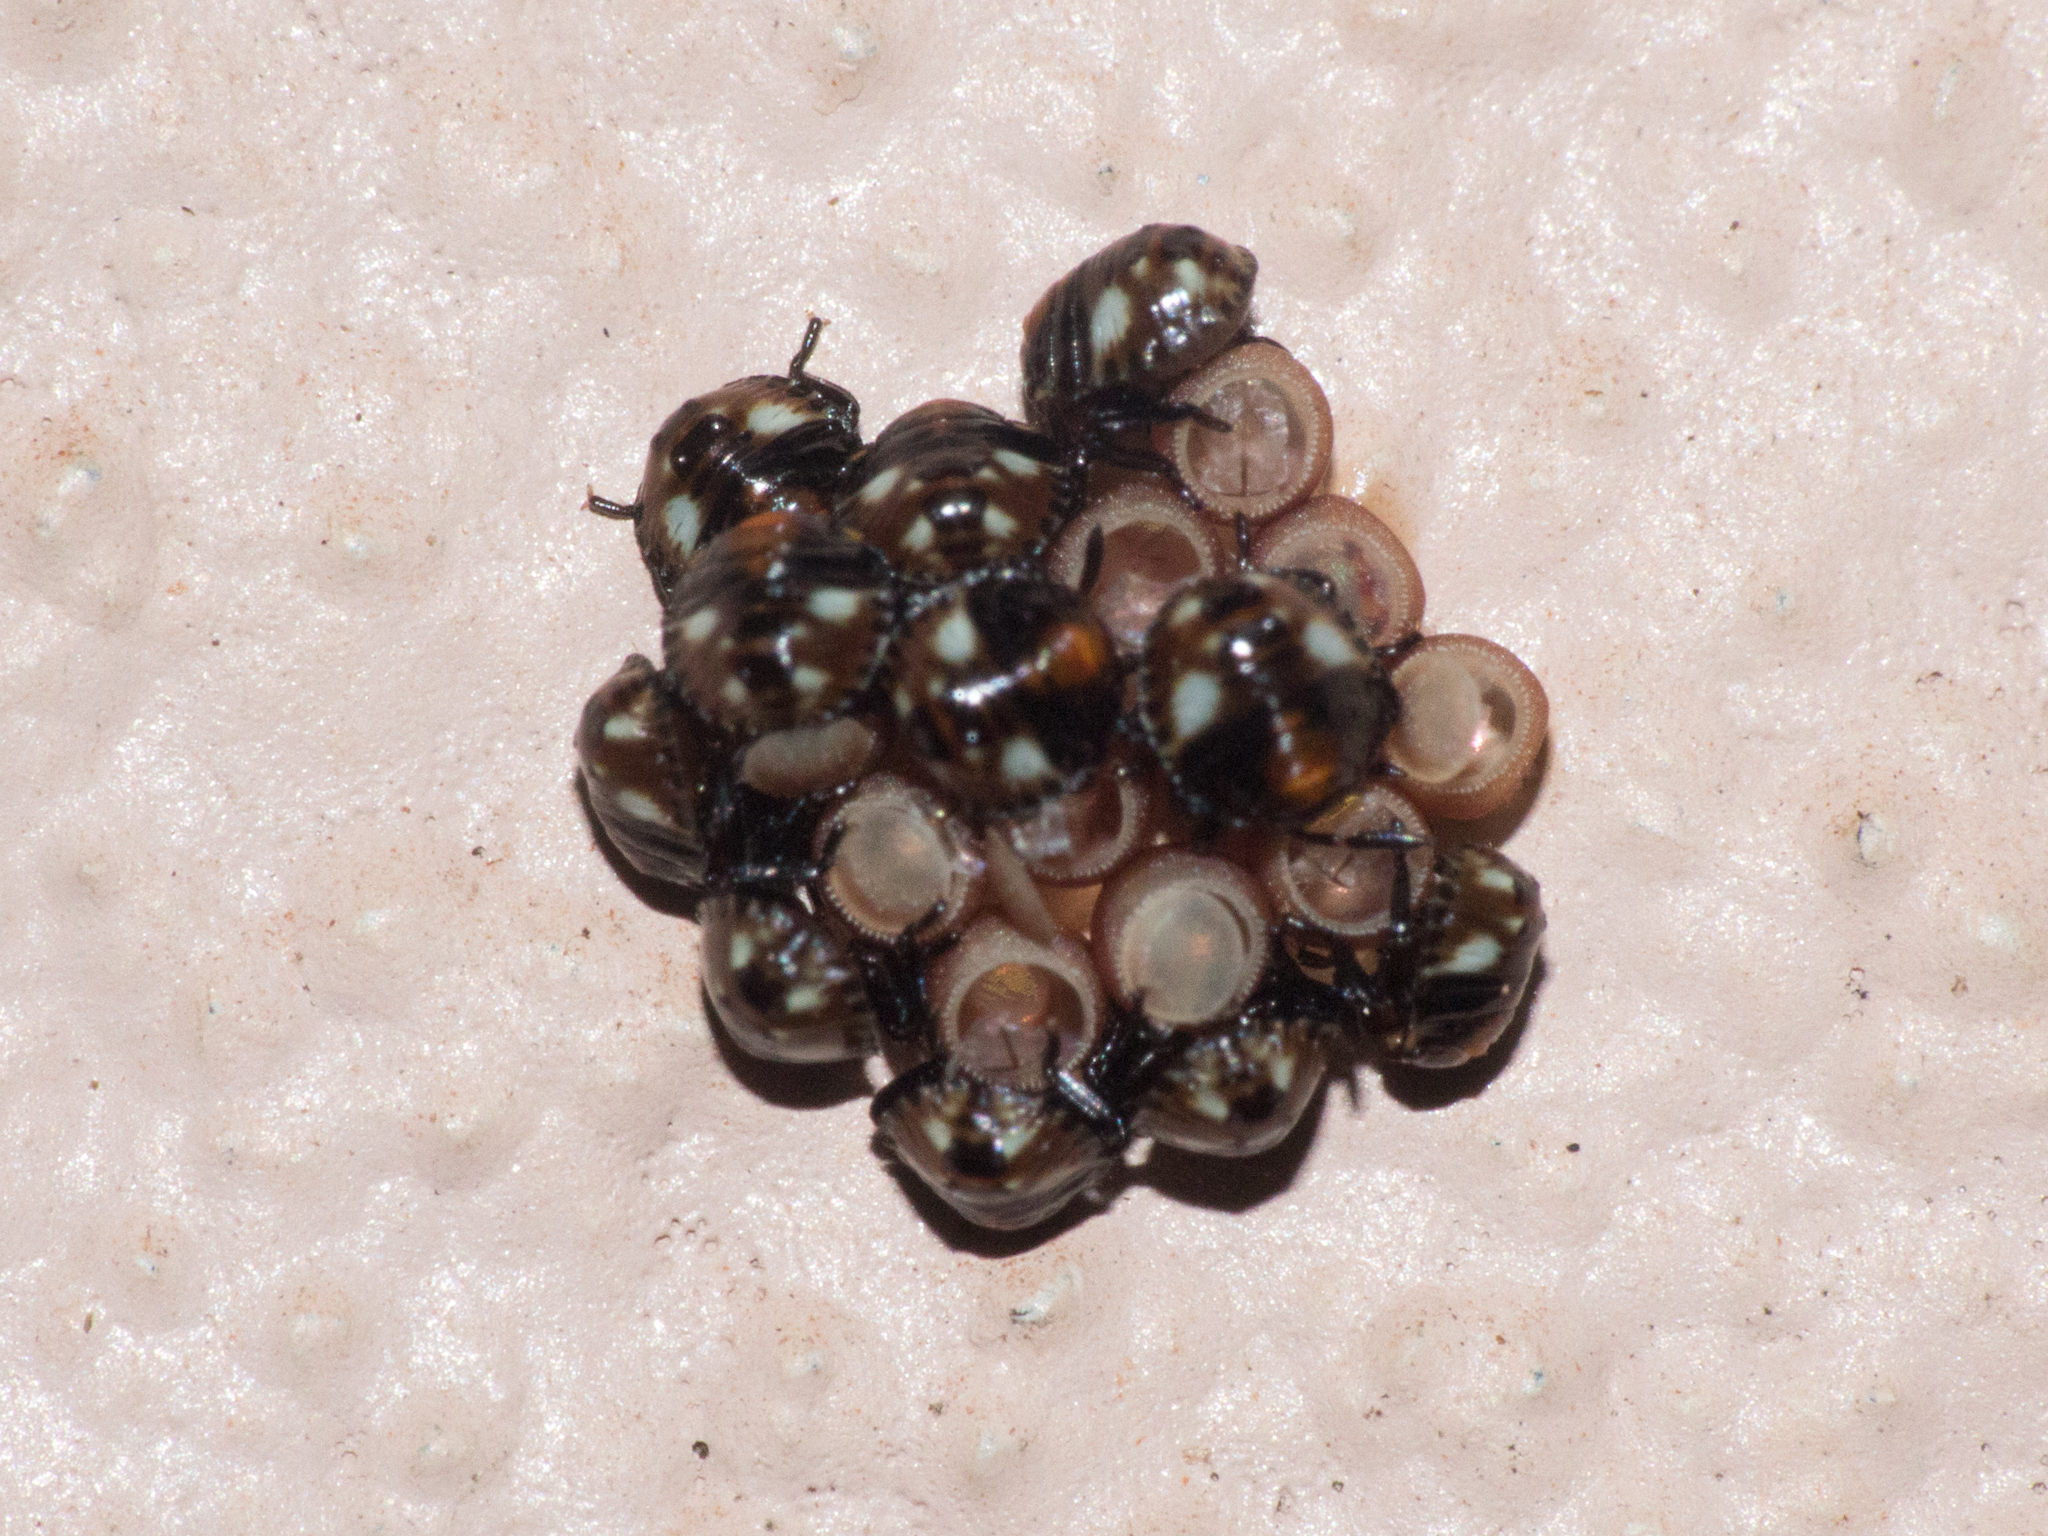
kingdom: Animalia
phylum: Arthropoda
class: Insecta
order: Hemiptera
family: Pentatomidae
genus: Chinavia
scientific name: Chinavia erythrocnemis
